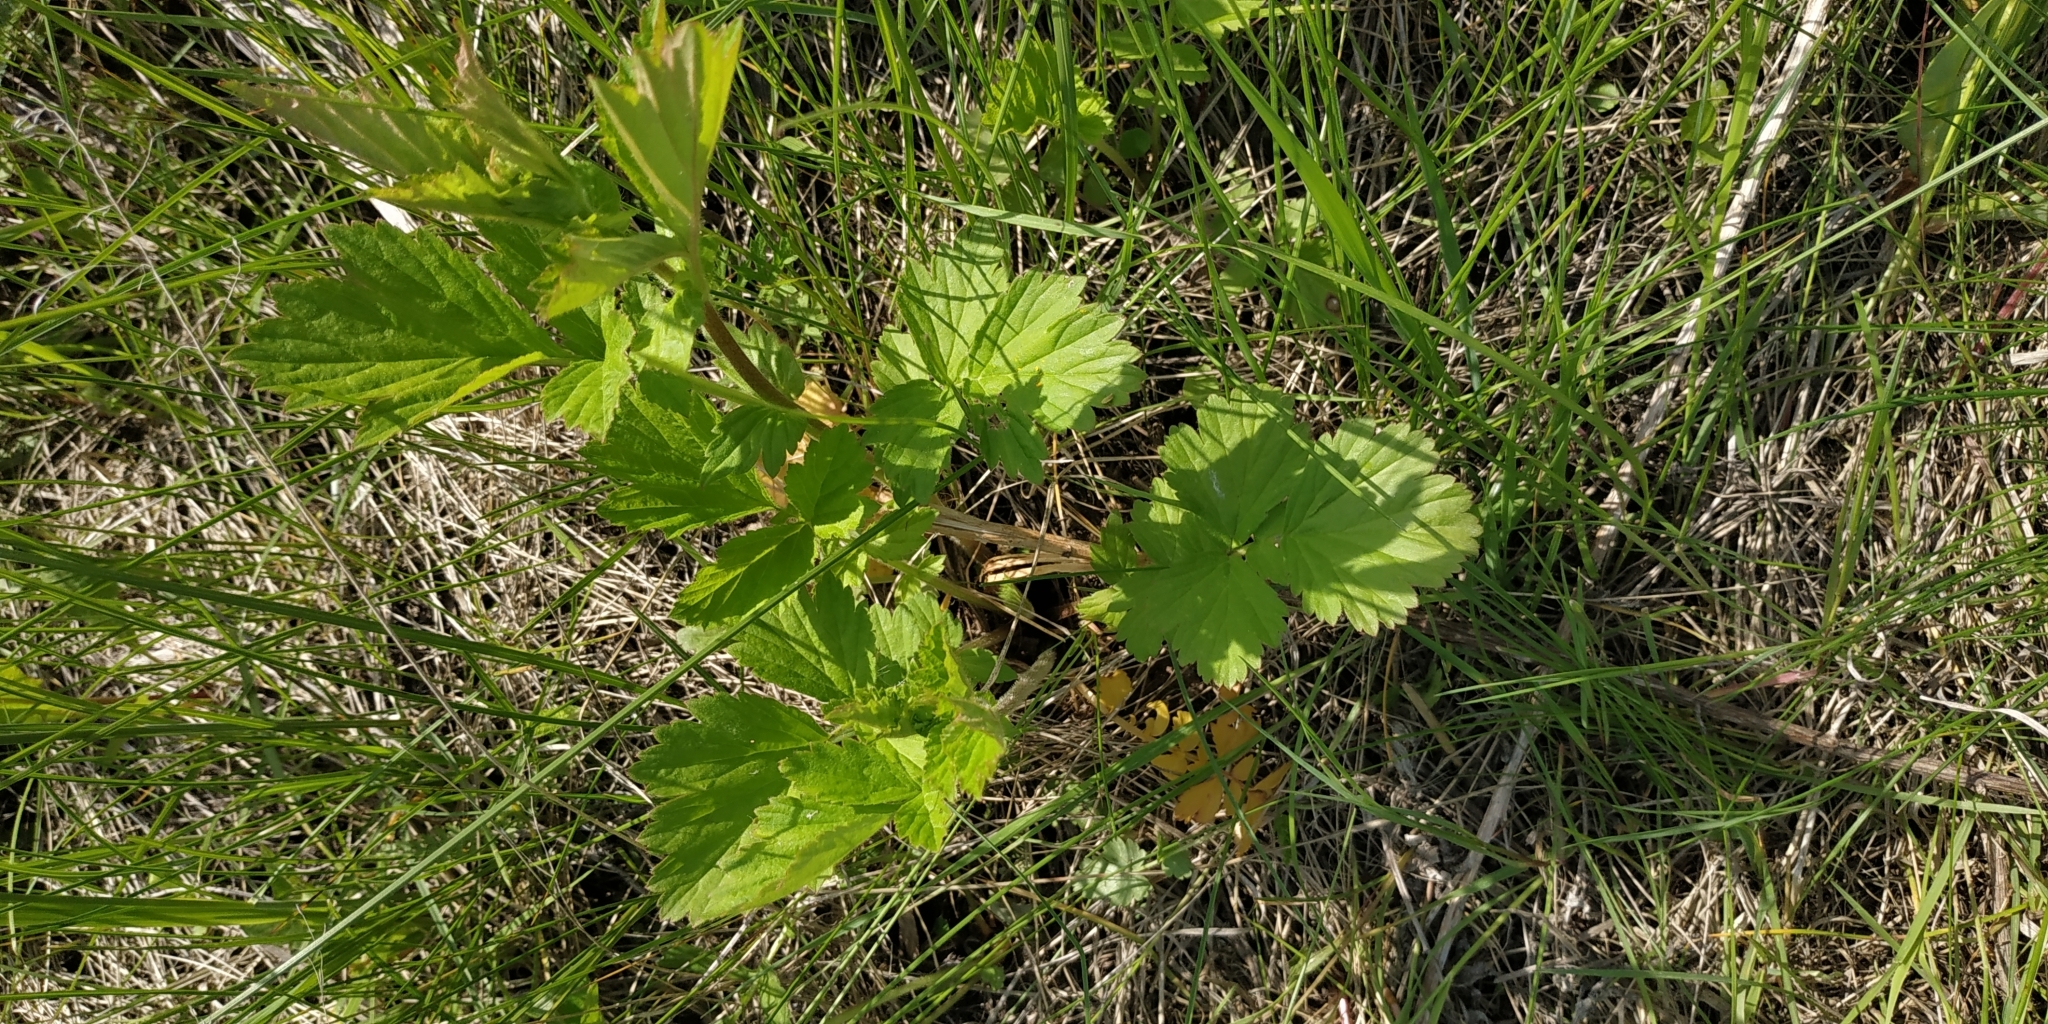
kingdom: Plantae
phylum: Tracheophyta
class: Magnoliopsida
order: Rosales
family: Rosaceae
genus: Geum
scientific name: Geum aleppicum
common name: Yellow avens
